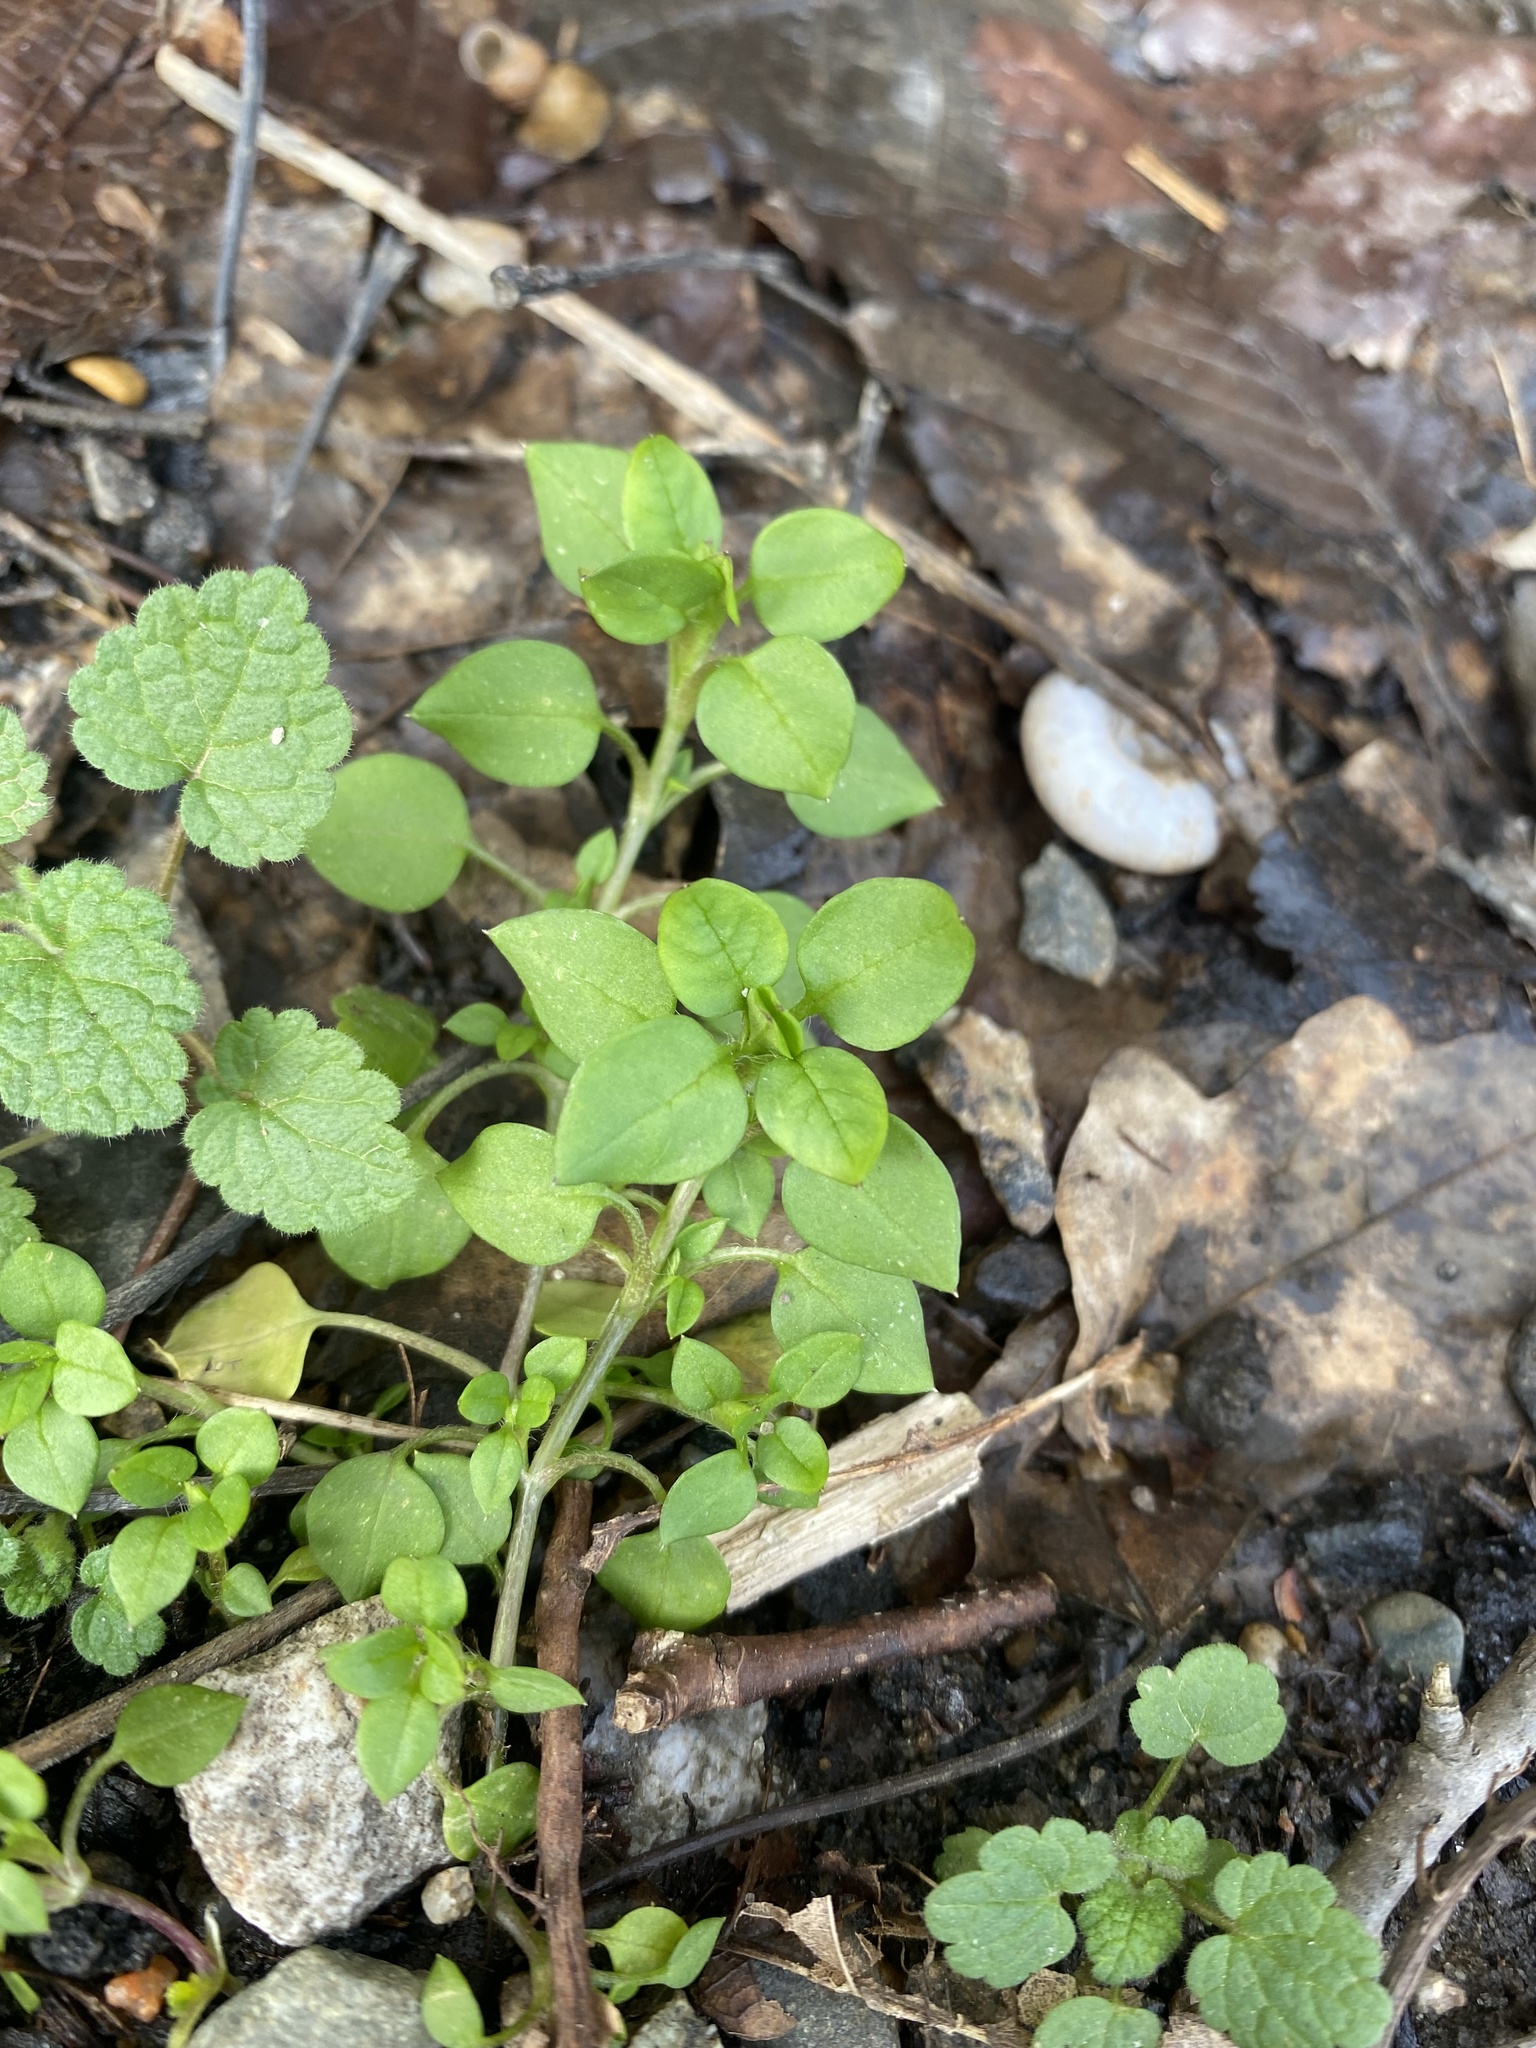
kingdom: Plantae
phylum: Tracheophyta
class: Magnoliopsida
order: Caryophyllales
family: Caryophyllaceae
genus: Stellaria
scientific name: Stellaria media
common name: Common chickweed
